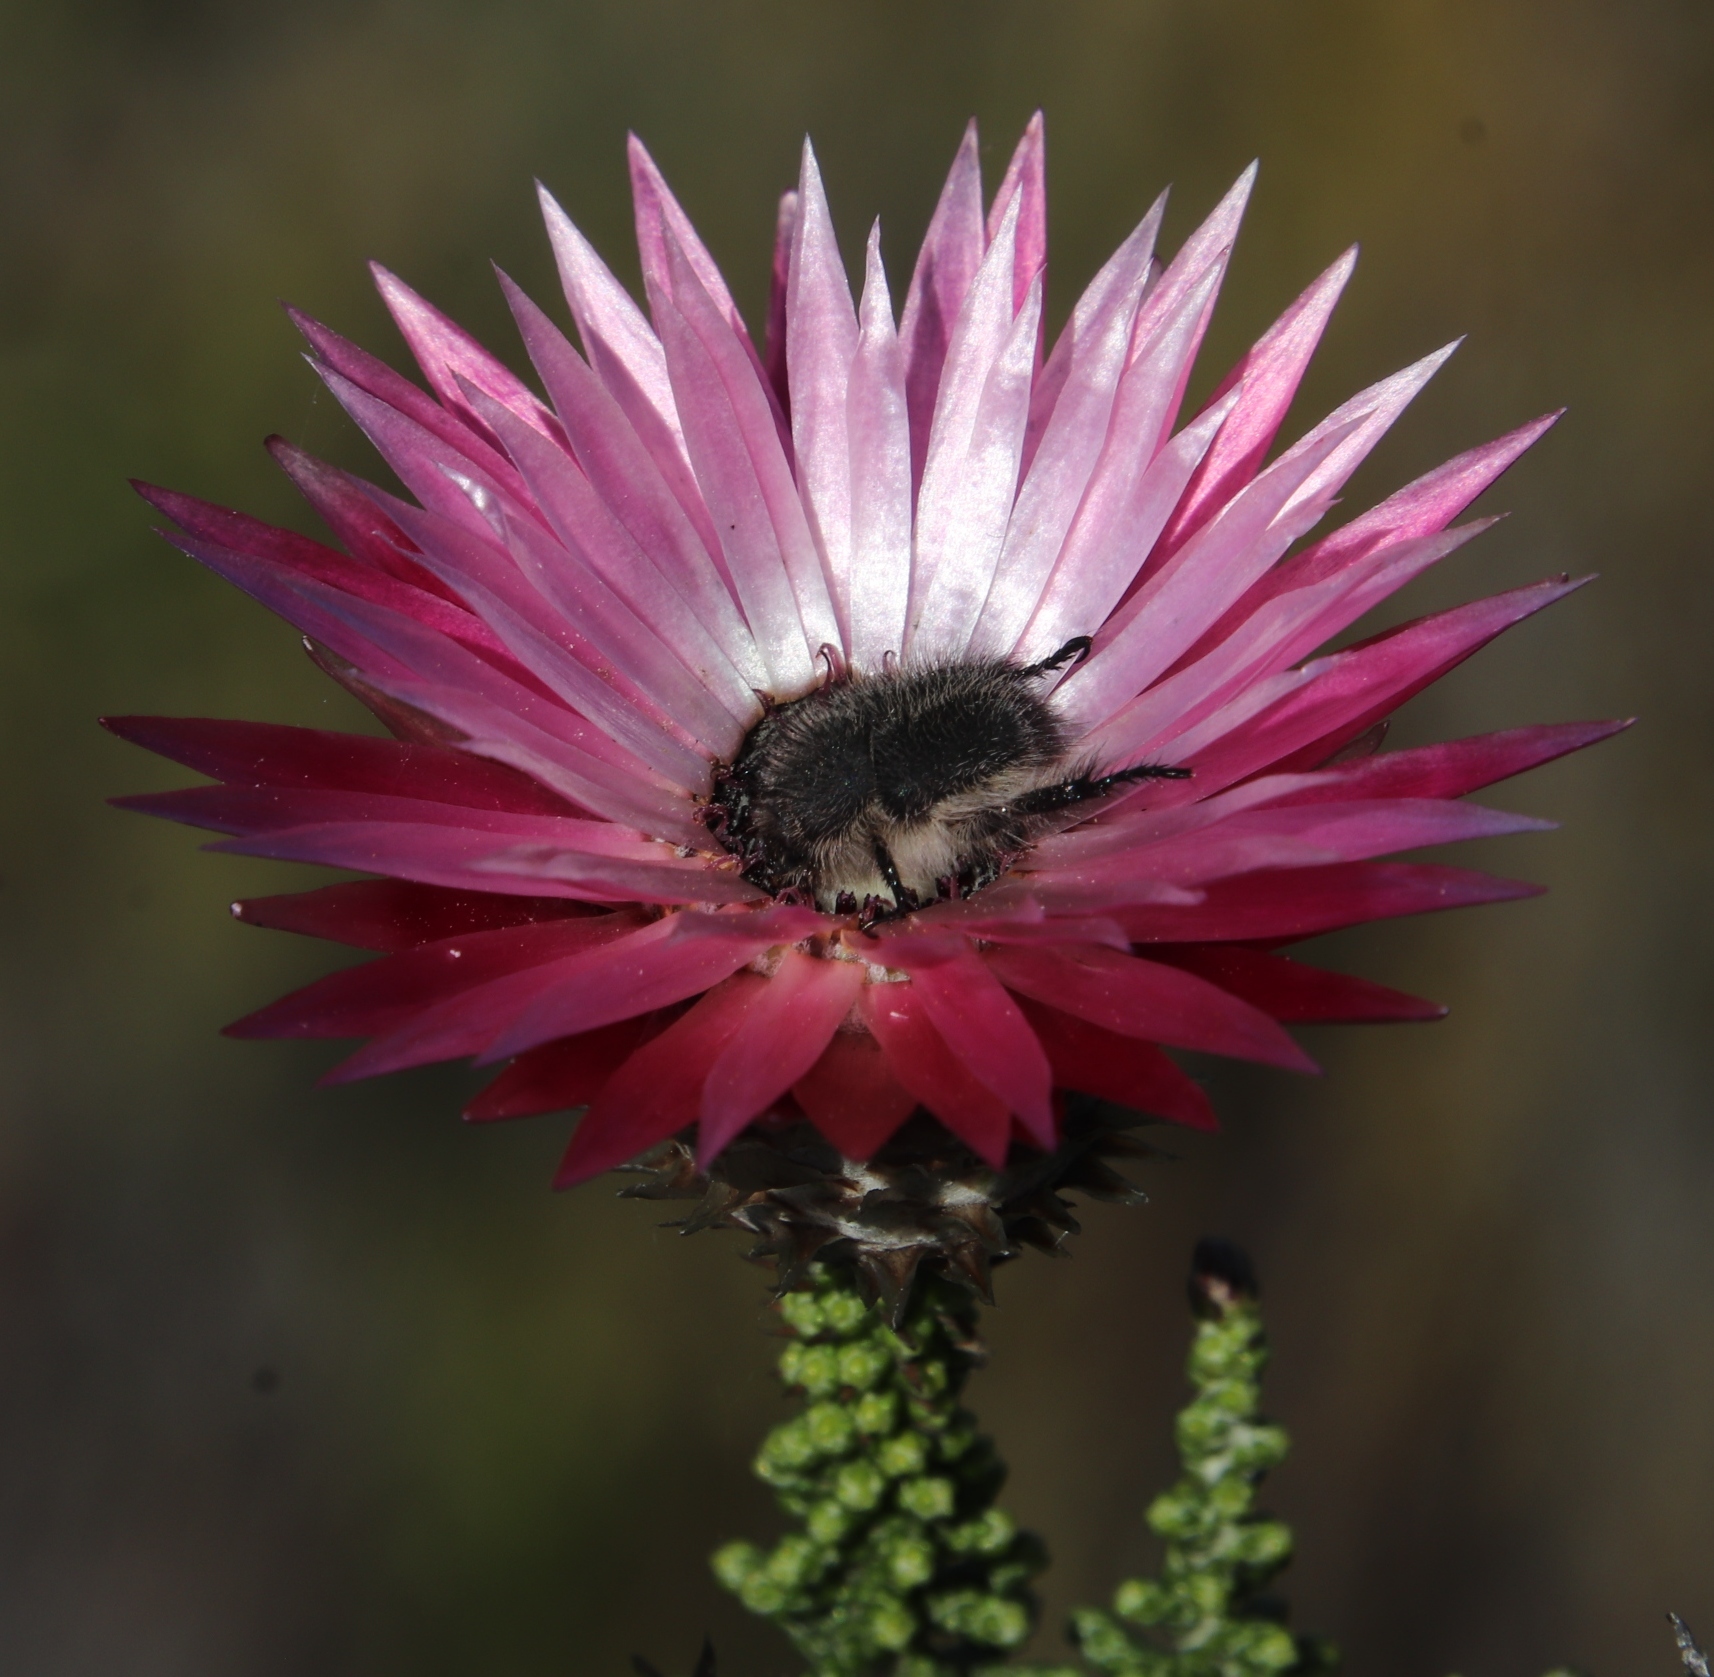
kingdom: Plantae
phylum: Tracheophyta
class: Magnoliopsida
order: Asterales
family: Asteraceae
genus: Phaenocoma
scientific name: Phaenocoma prolifera
